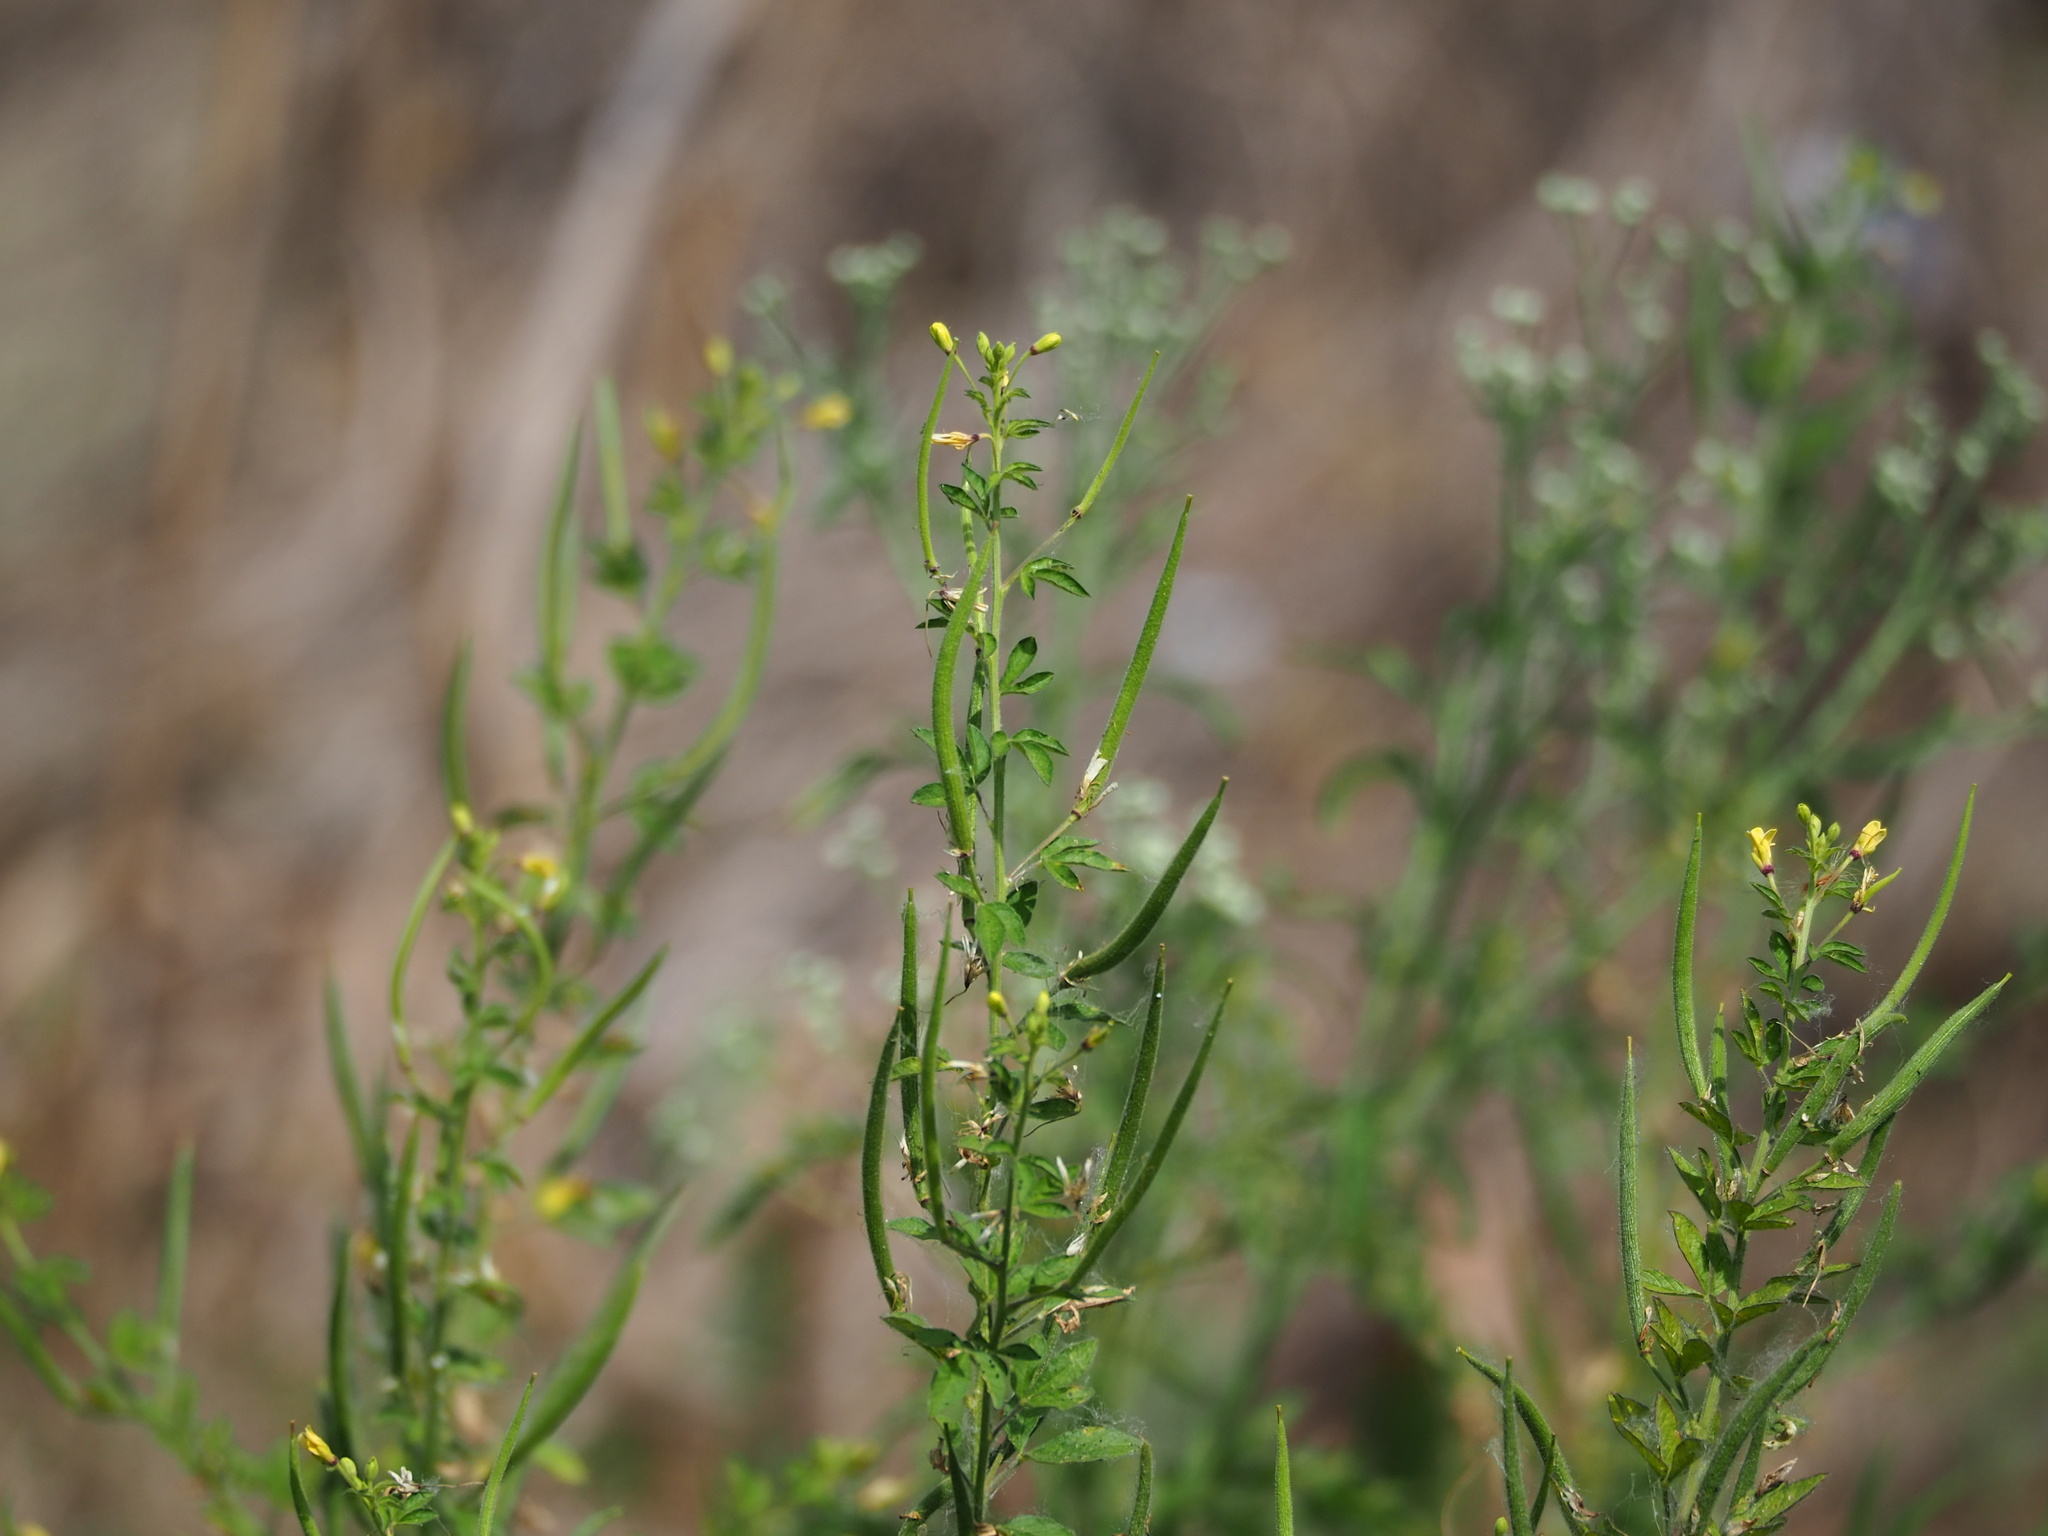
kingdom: Plantae
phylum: Tracheophyta
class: Magnoliopsida
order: Brassicales
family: Cleomaceae
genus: Arivela
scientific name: Arivela viscosa
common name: Asian spiderflower
